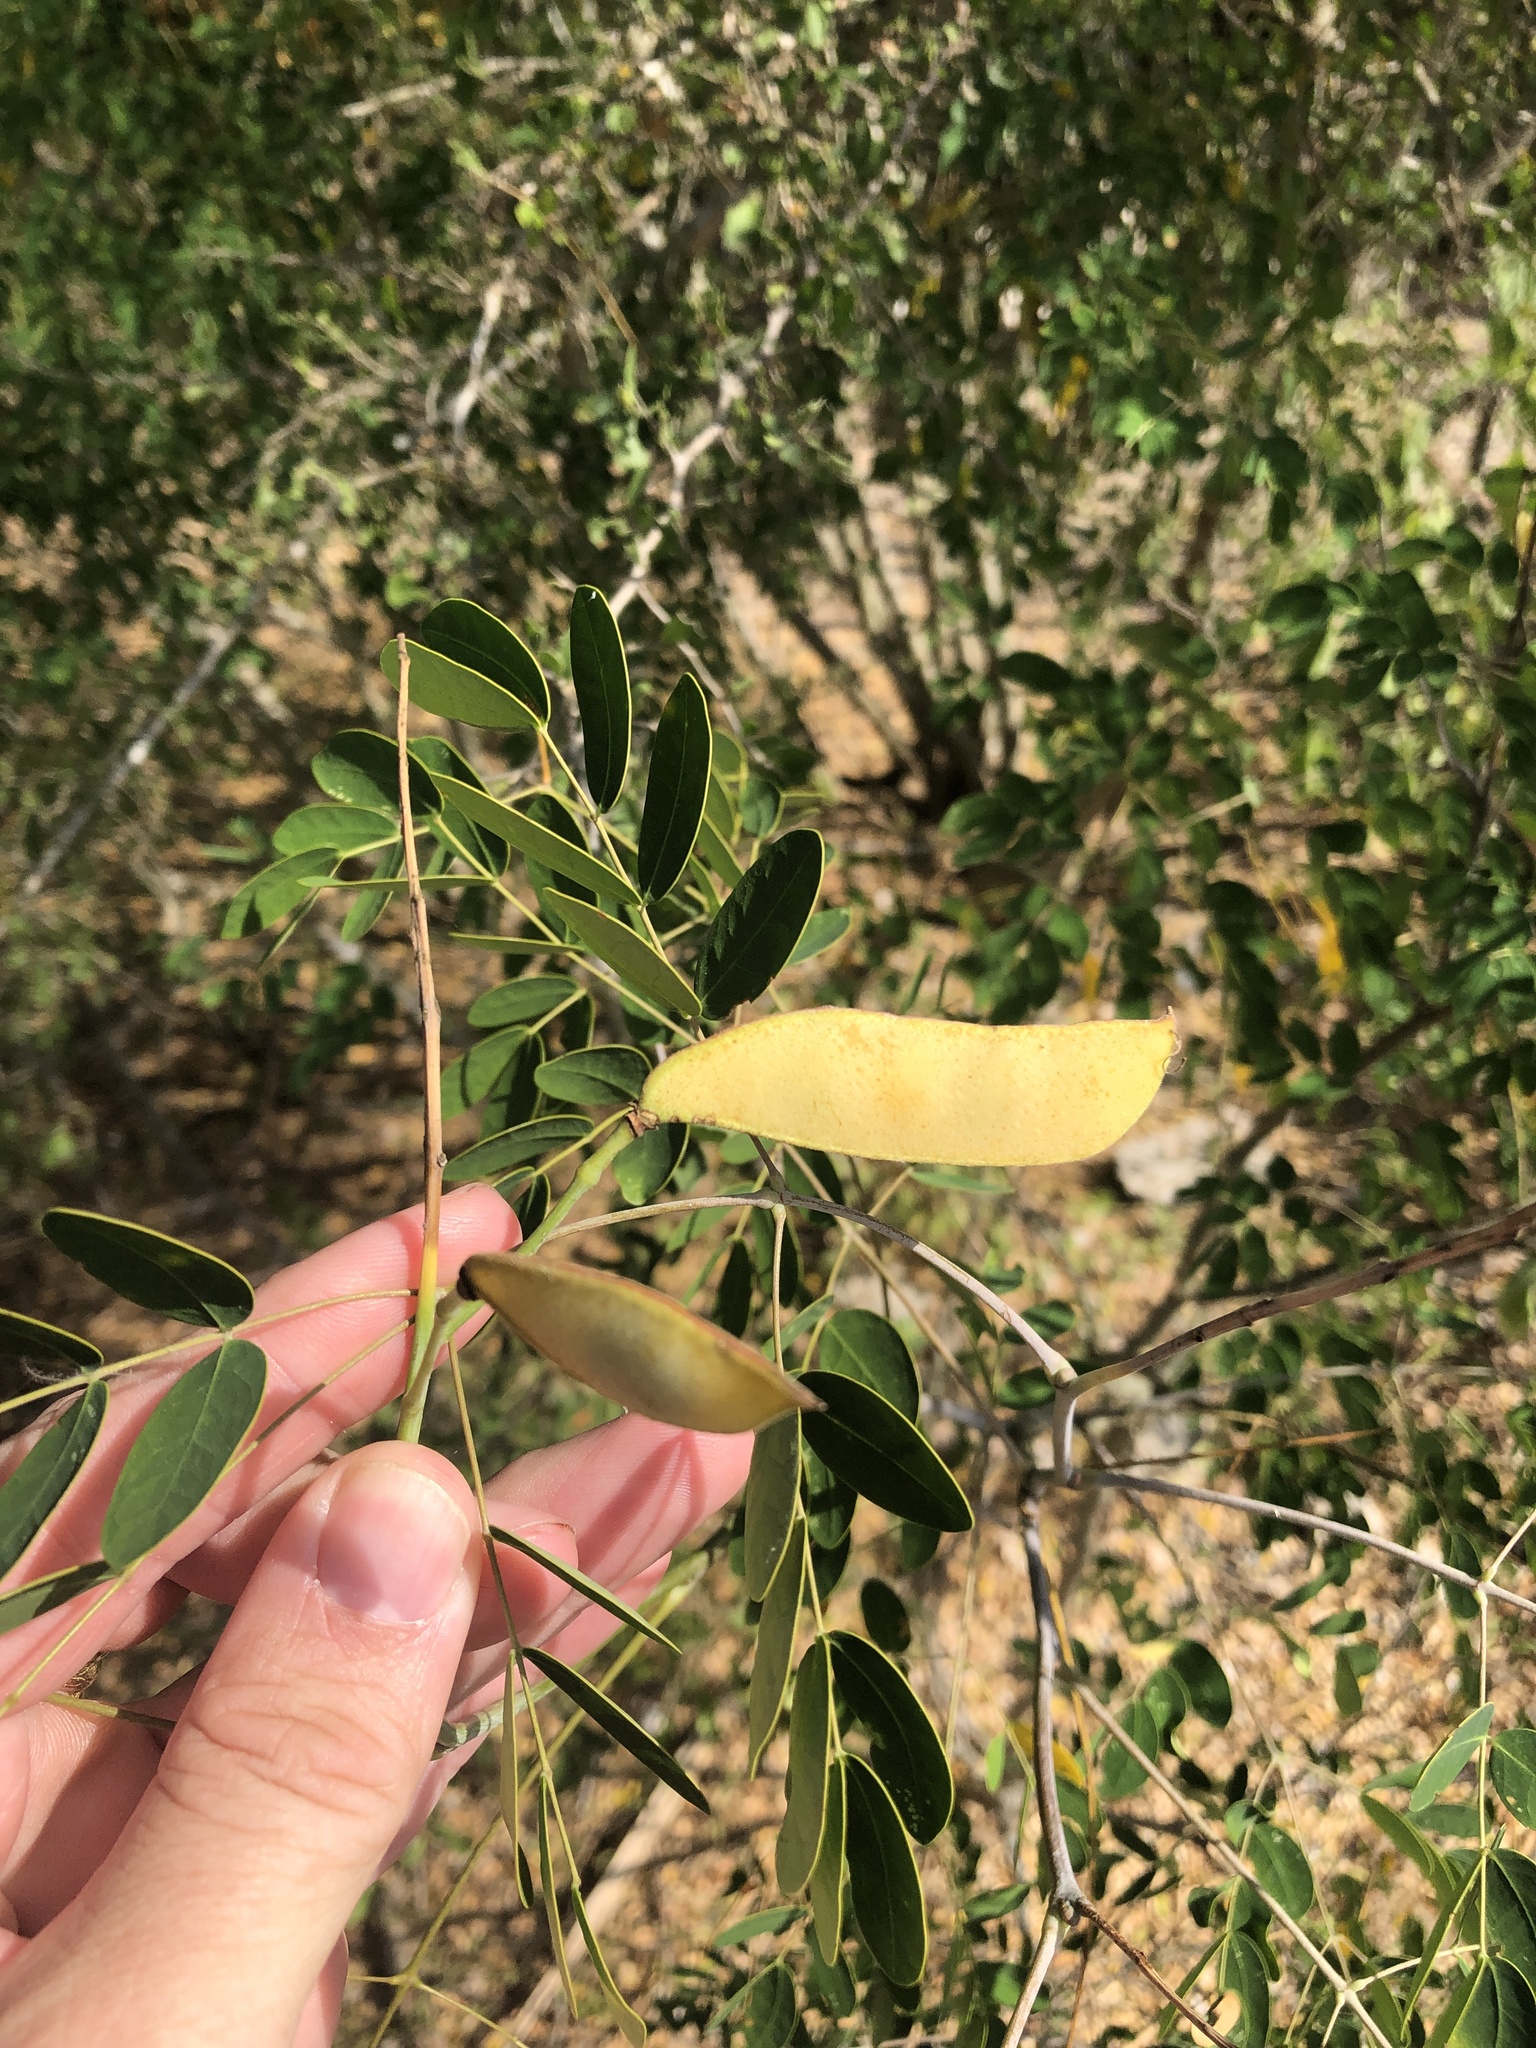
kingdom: Plantae
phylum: Tracheophyta
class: Magnoliopsida
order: Fabales
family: Fabaceae
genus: Erythrostemon
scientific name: Erythrostemon mexicanus
